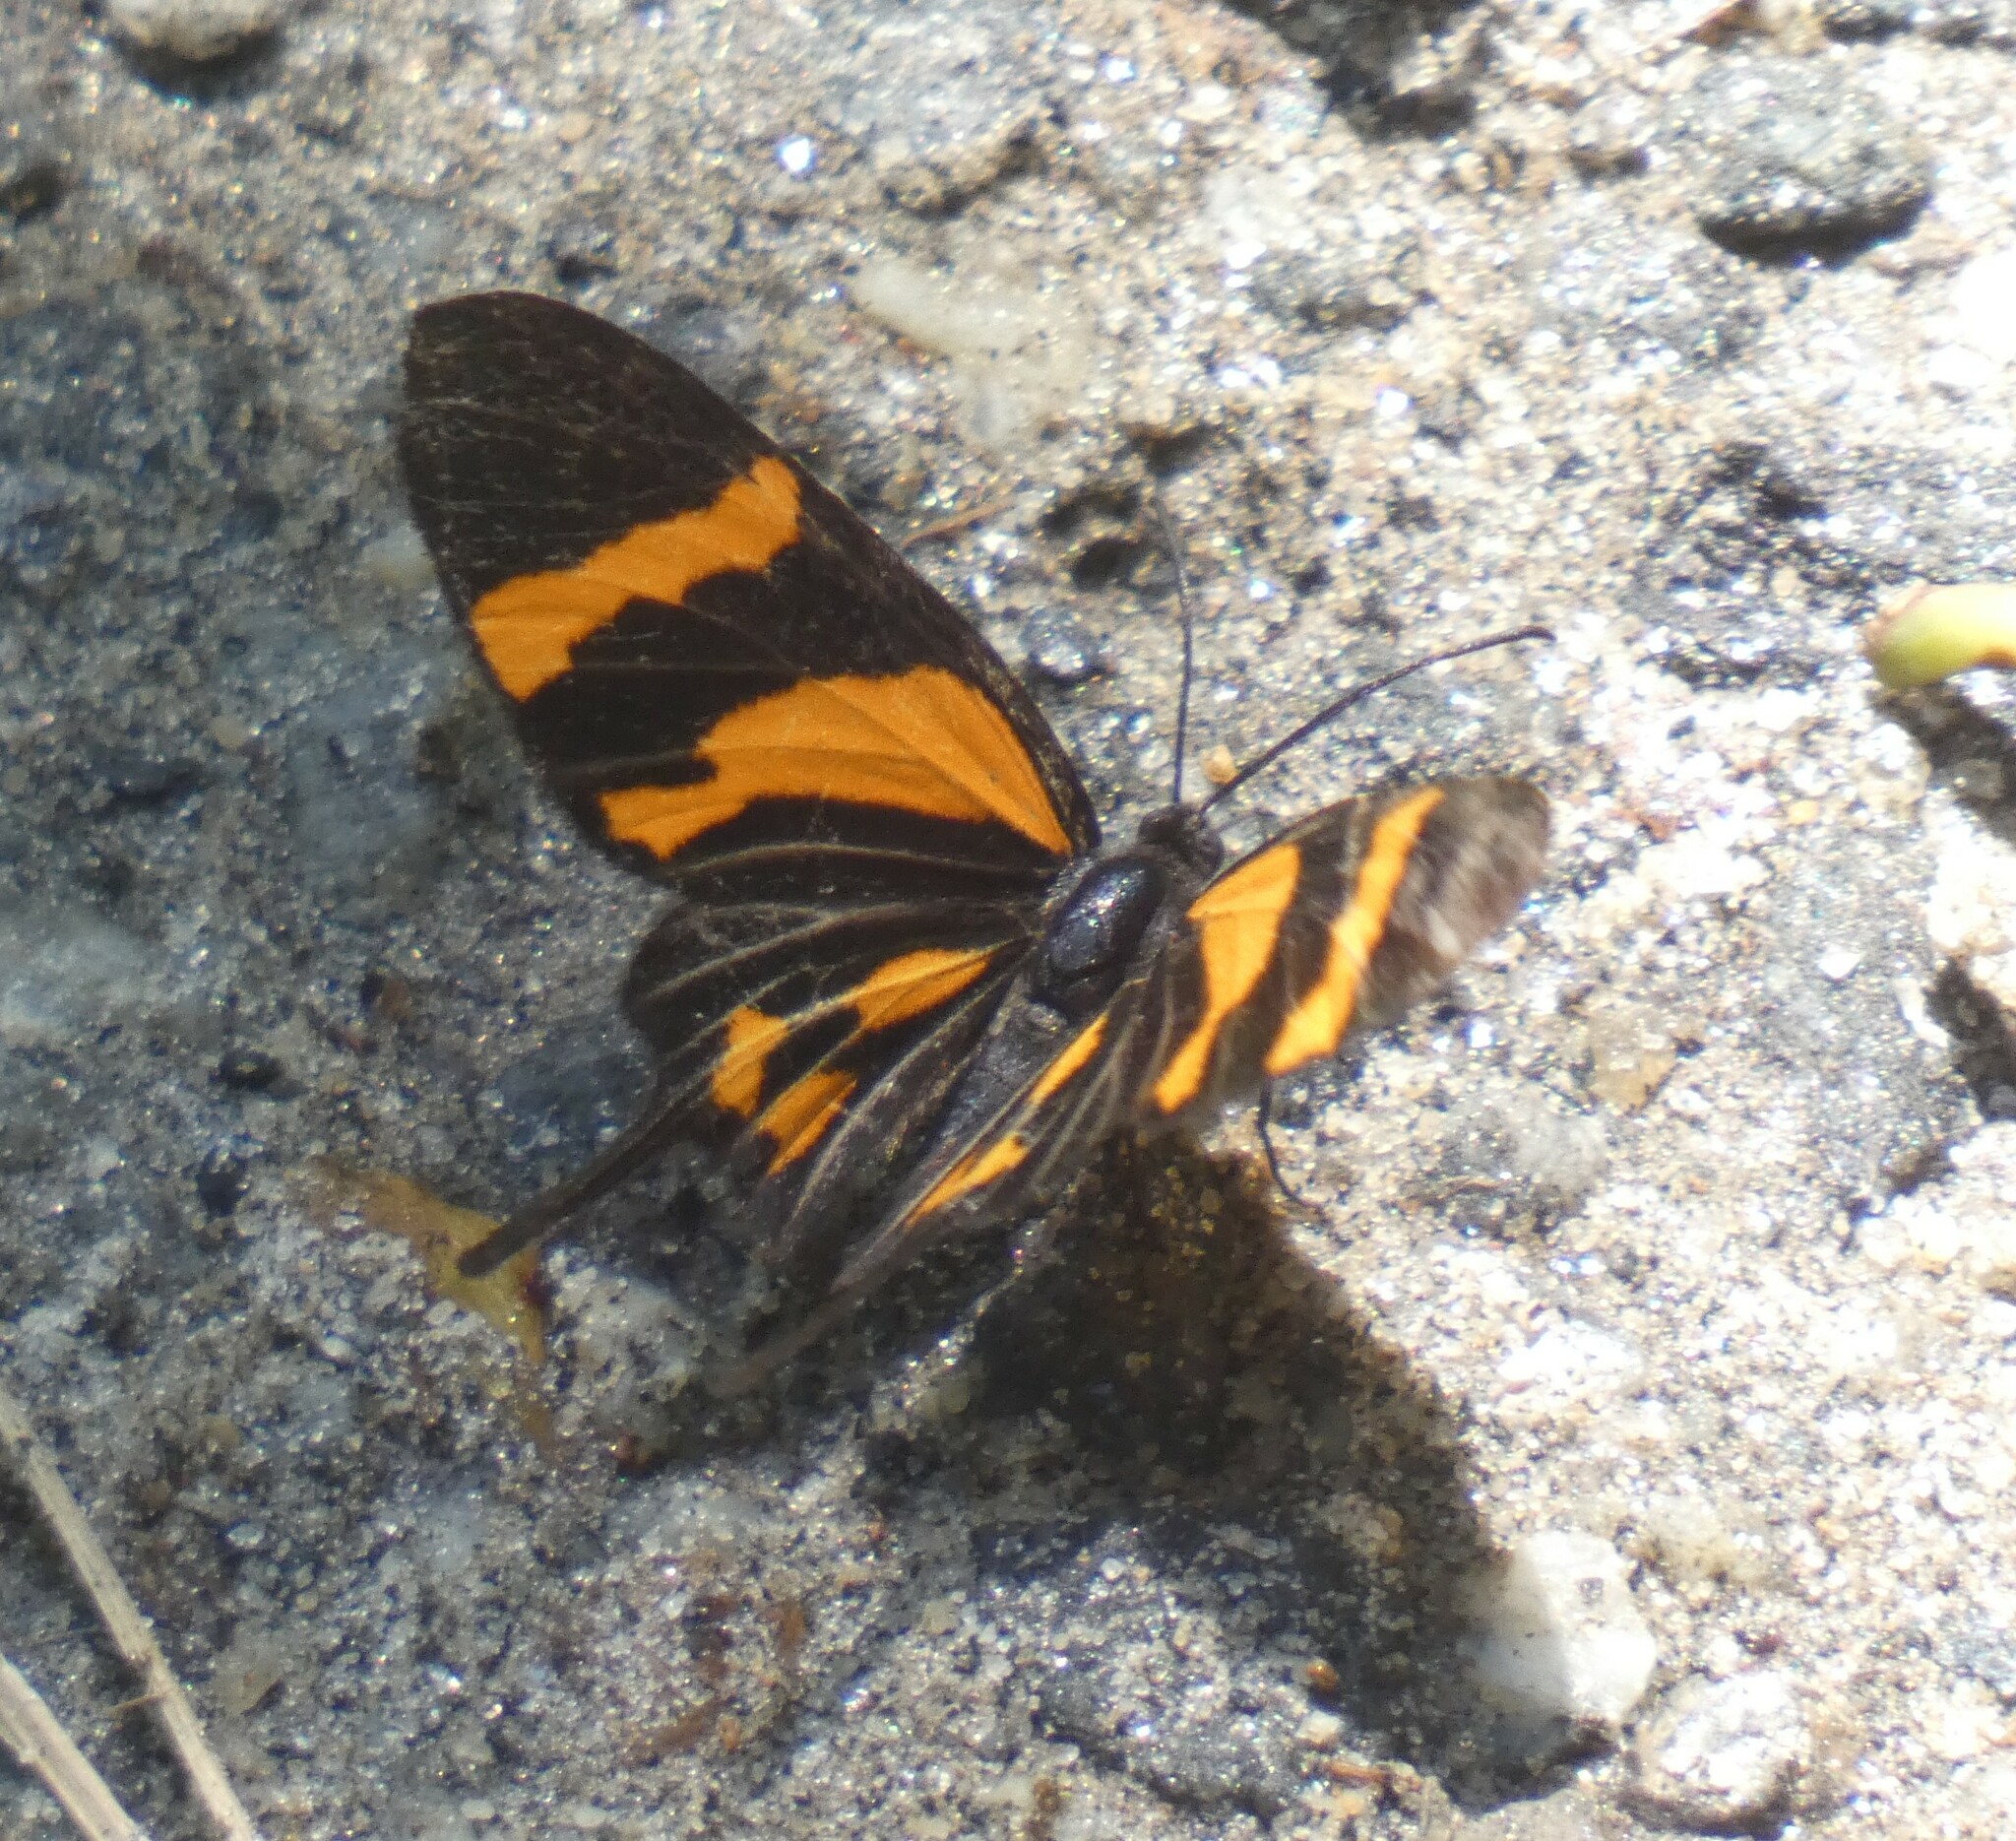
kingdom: Animalia
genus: Barbicornis
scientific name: Barbicornis basilis
